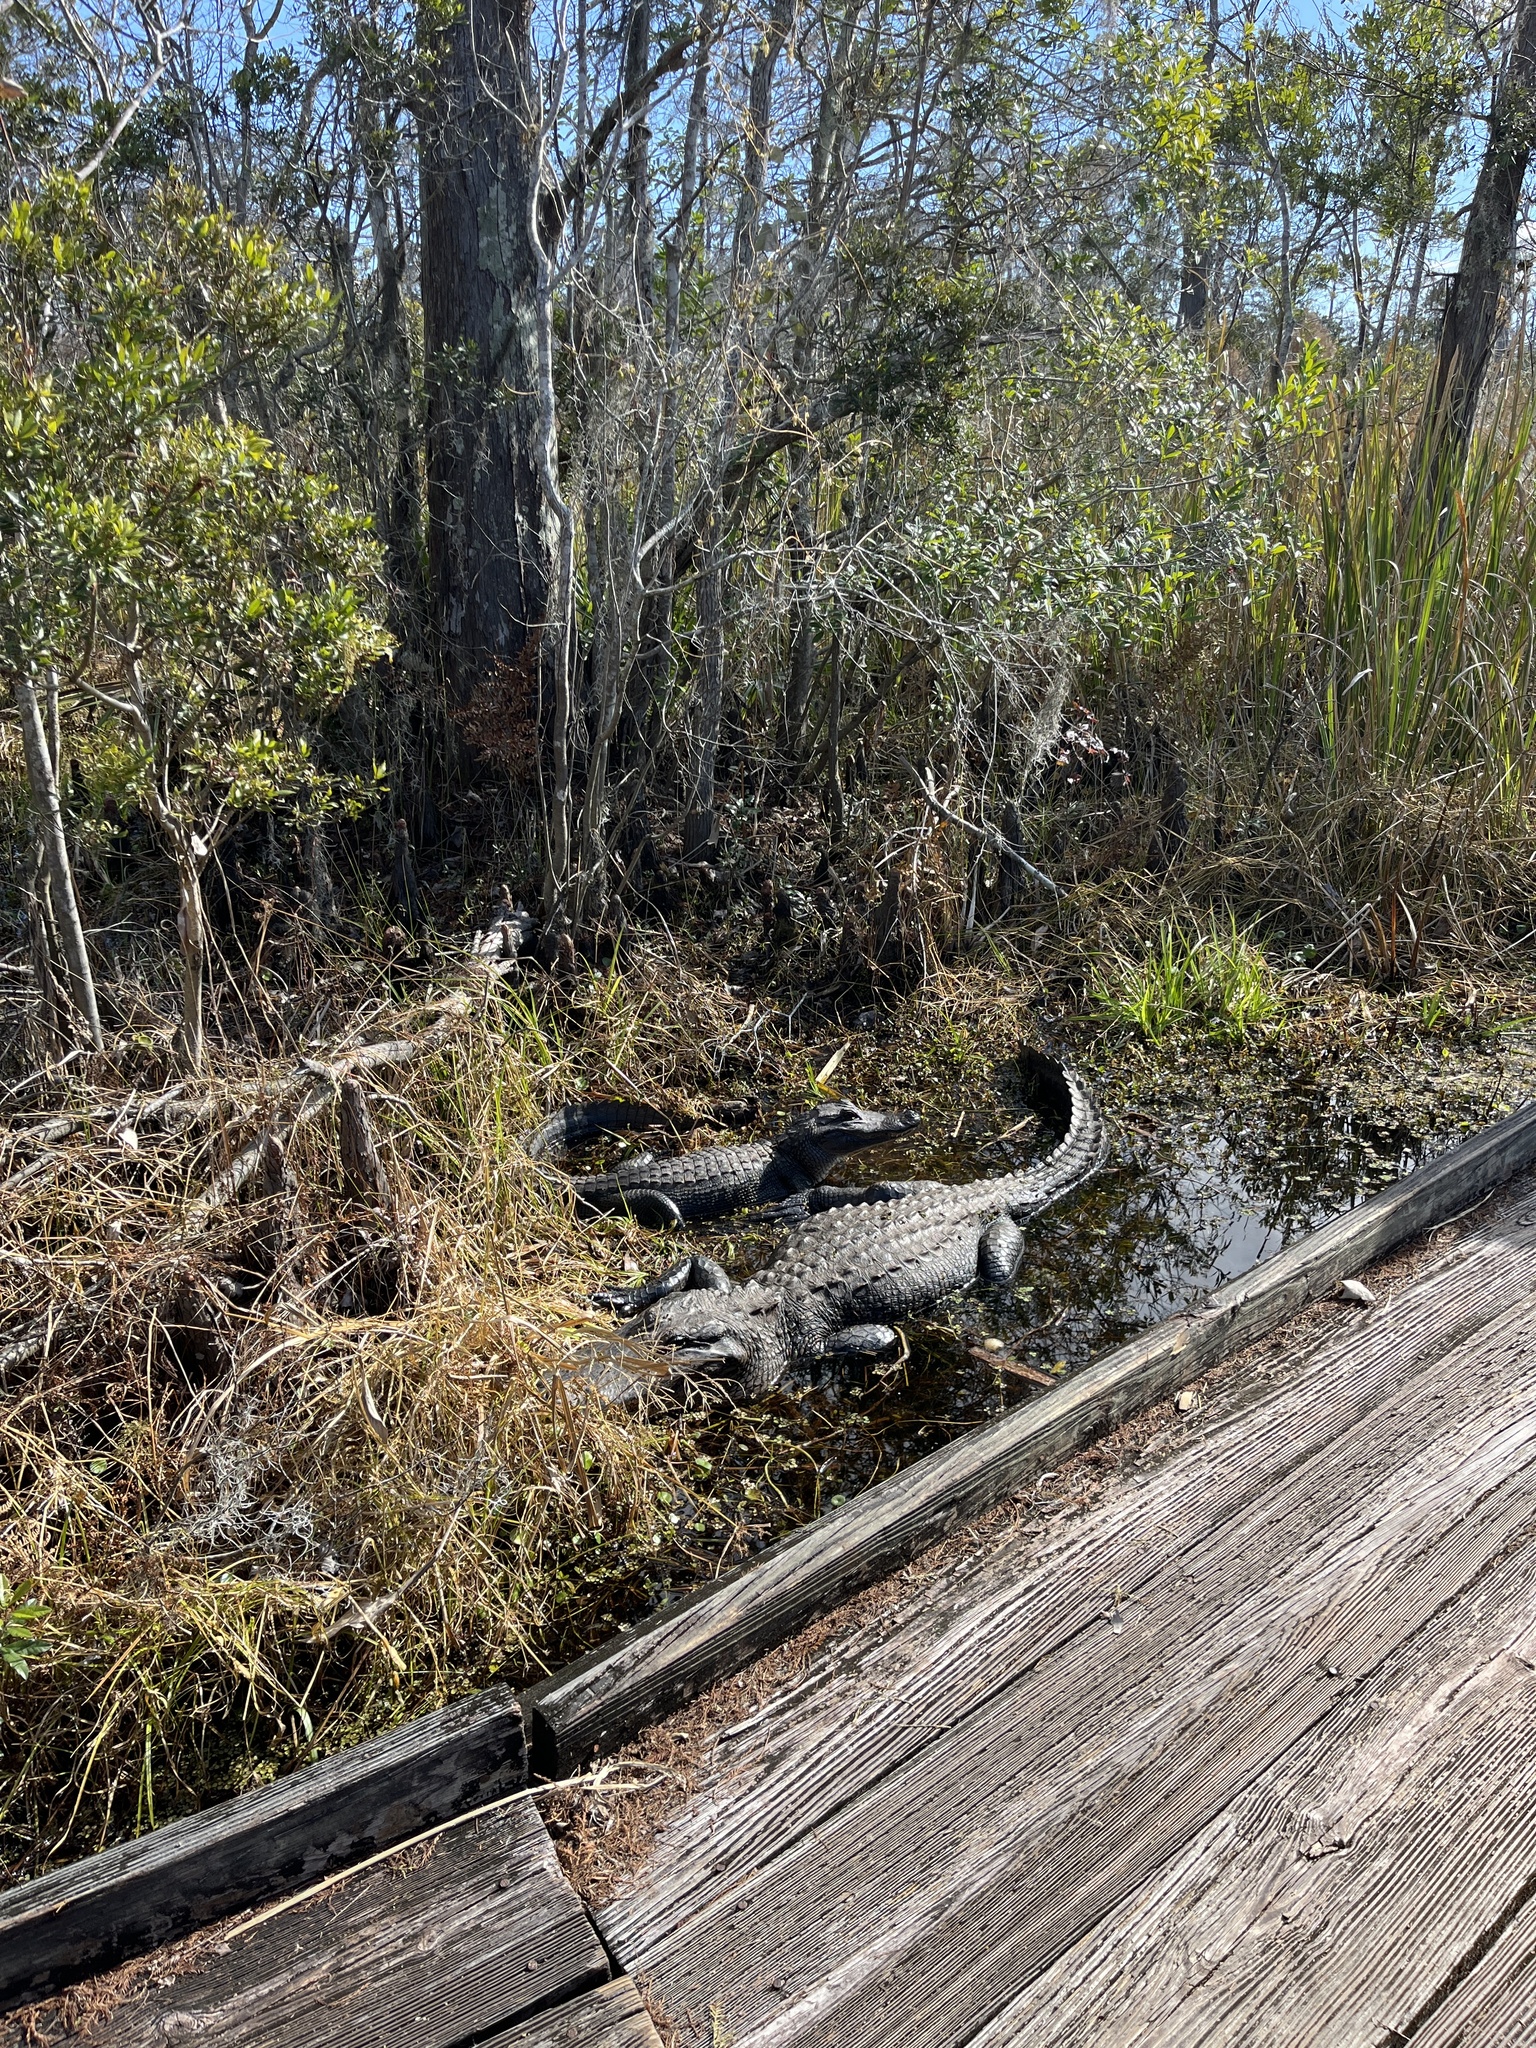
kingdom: Animalia
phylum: Chordata
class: Crocodylia
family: Alligatoridae
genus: Alligator
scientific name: Alligator mississippiensis
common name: American alligator
